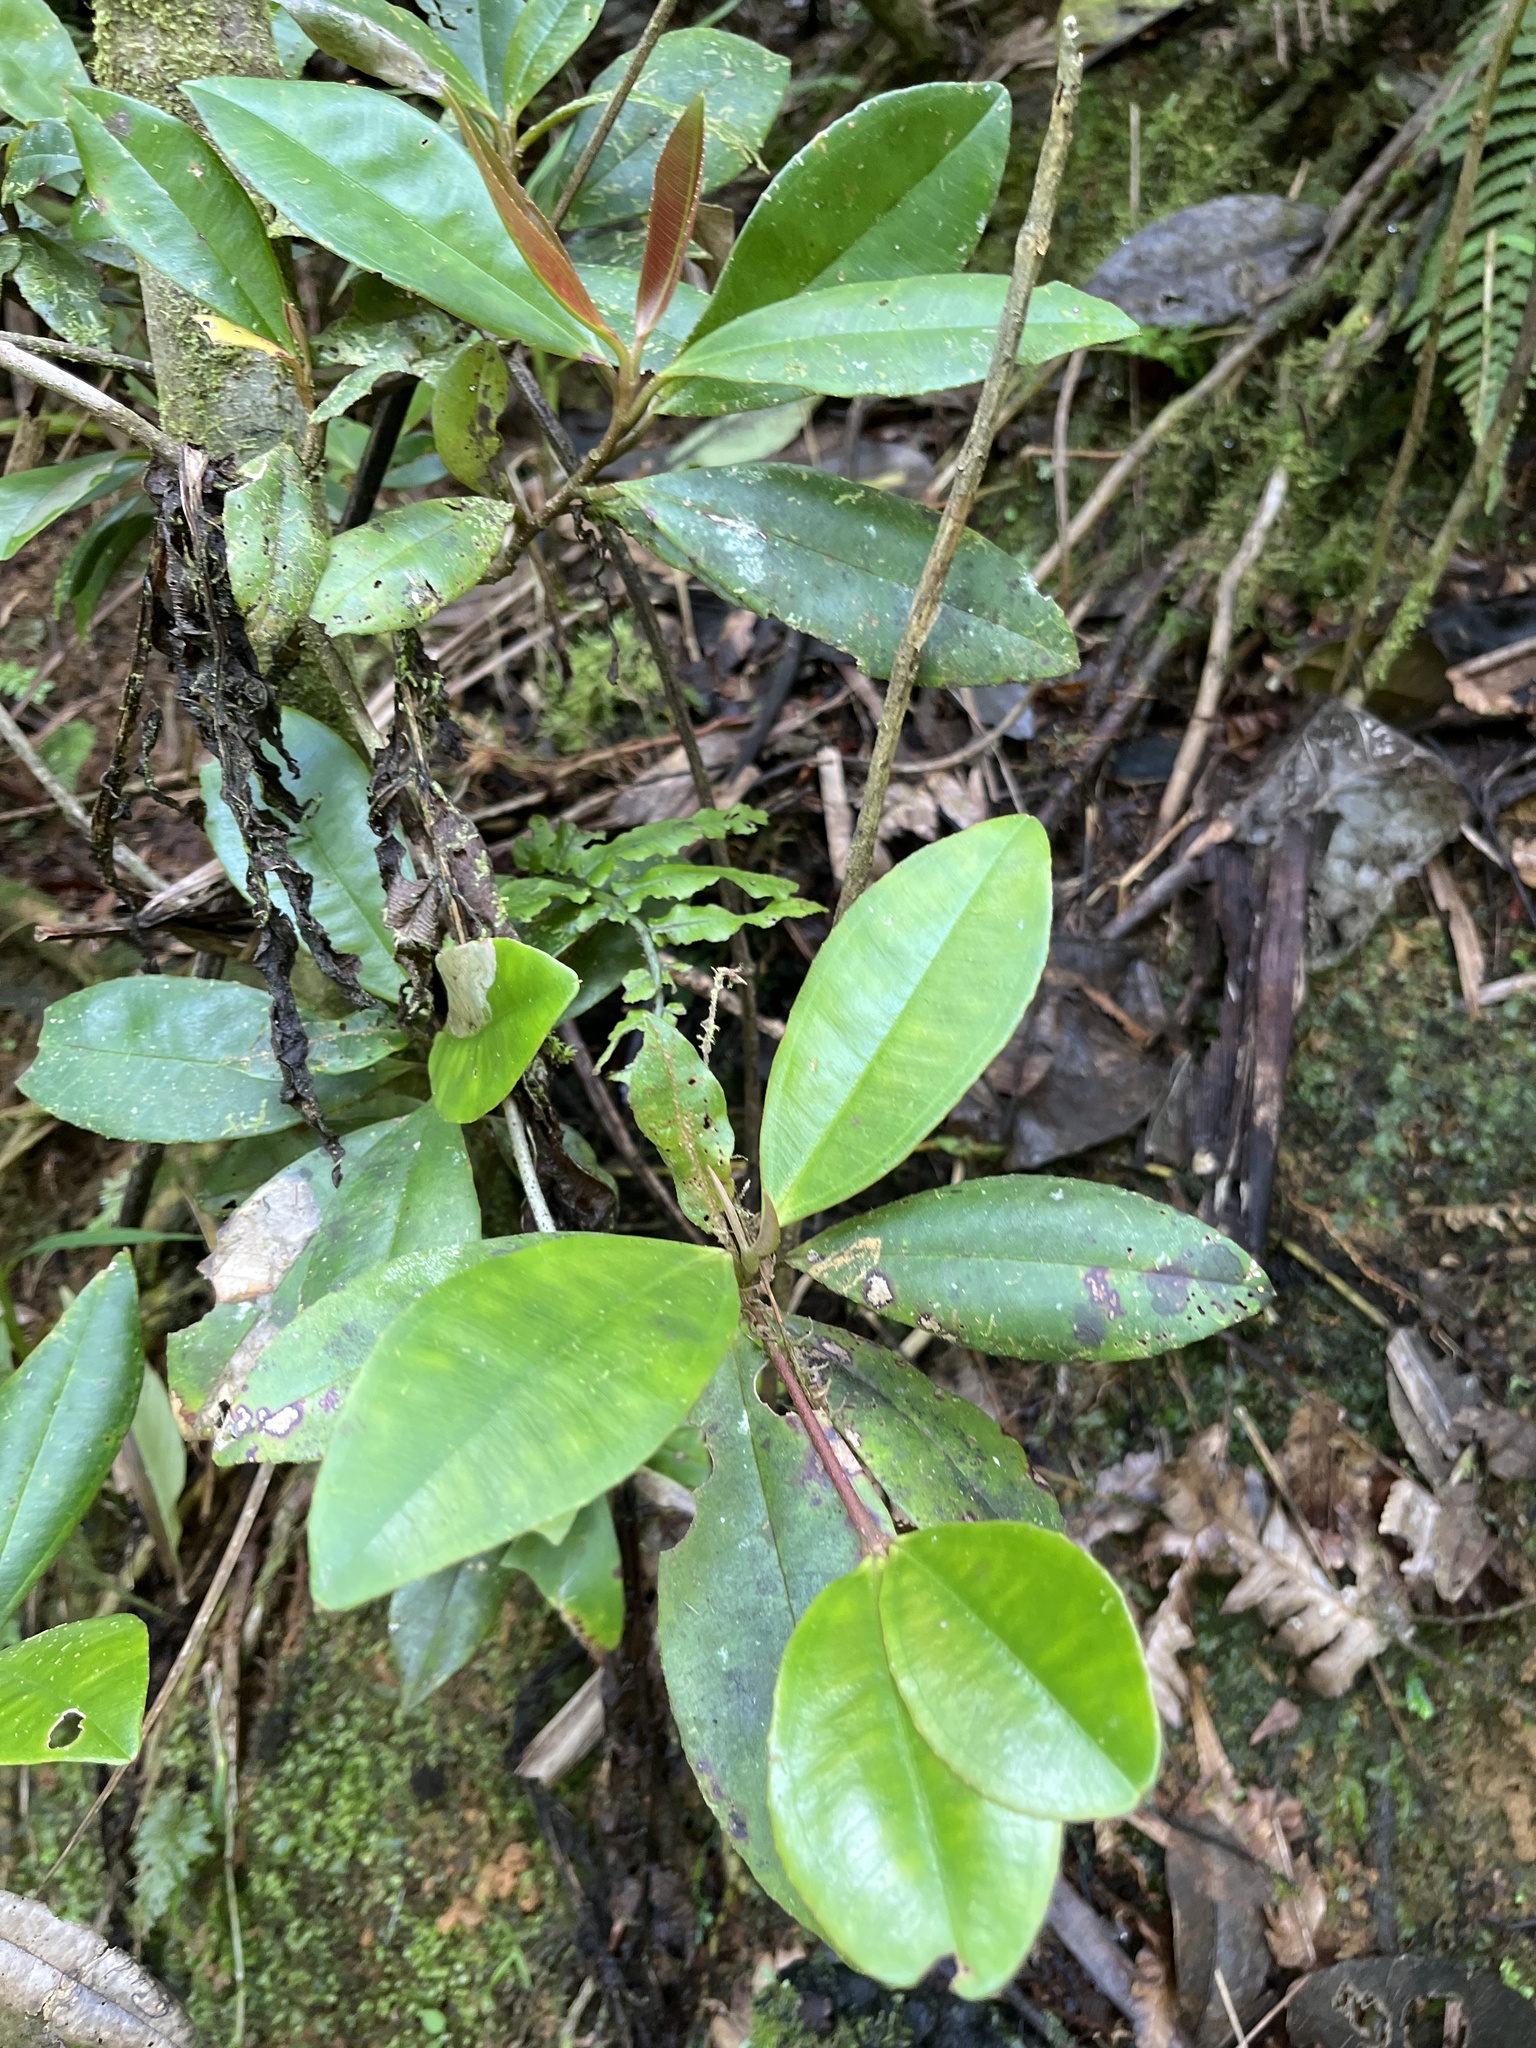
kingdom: Plantae
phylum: Tracheophyta
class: Magnoliopsida
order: Chloranthales
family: Chloranthaceae
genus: Hedyosmum
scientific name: Hedyosmum arborescens
